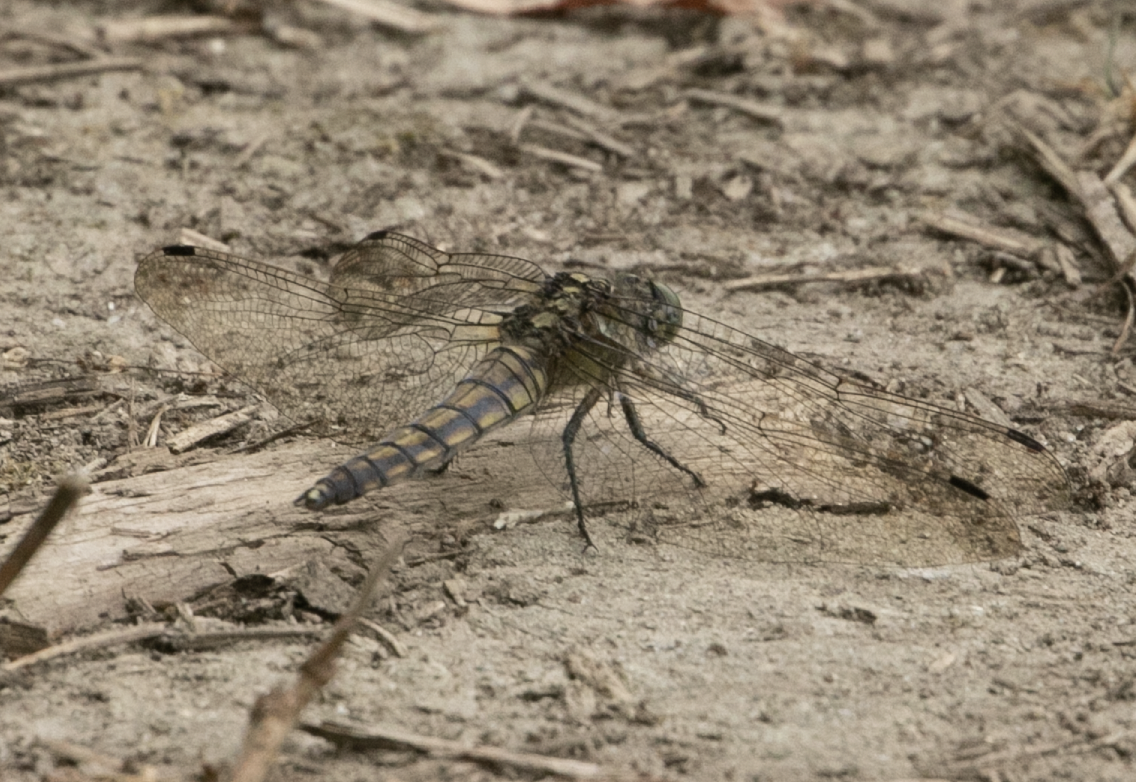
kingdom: Animalia
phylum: Arthropoda
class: Insecta
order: Odonata
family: Libellulidae
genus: Orthetrum
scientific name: Orthetrum cancellatum
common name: Black-tailed skimmer
